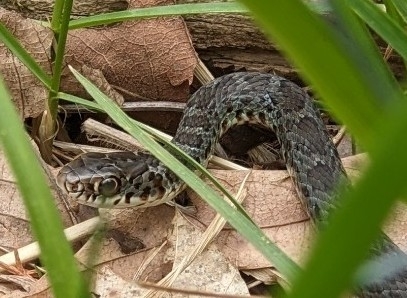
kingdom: Animalia
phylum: Chordata
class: Squamata
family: Colubridae
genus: Coluber
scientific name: Coluber constrictor
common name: Eastern racer
